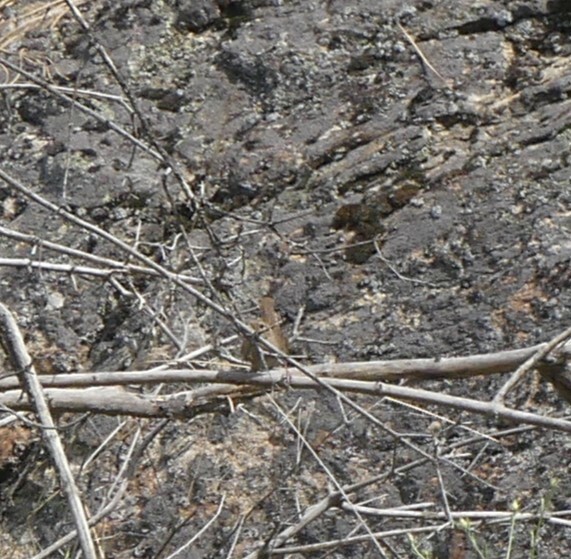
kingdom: Animalia
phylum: Chordata
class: Aves
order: Passeriformes
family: Troglodytidae
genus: Troglodytes
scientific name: Troglodytes aedon
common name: House wren
